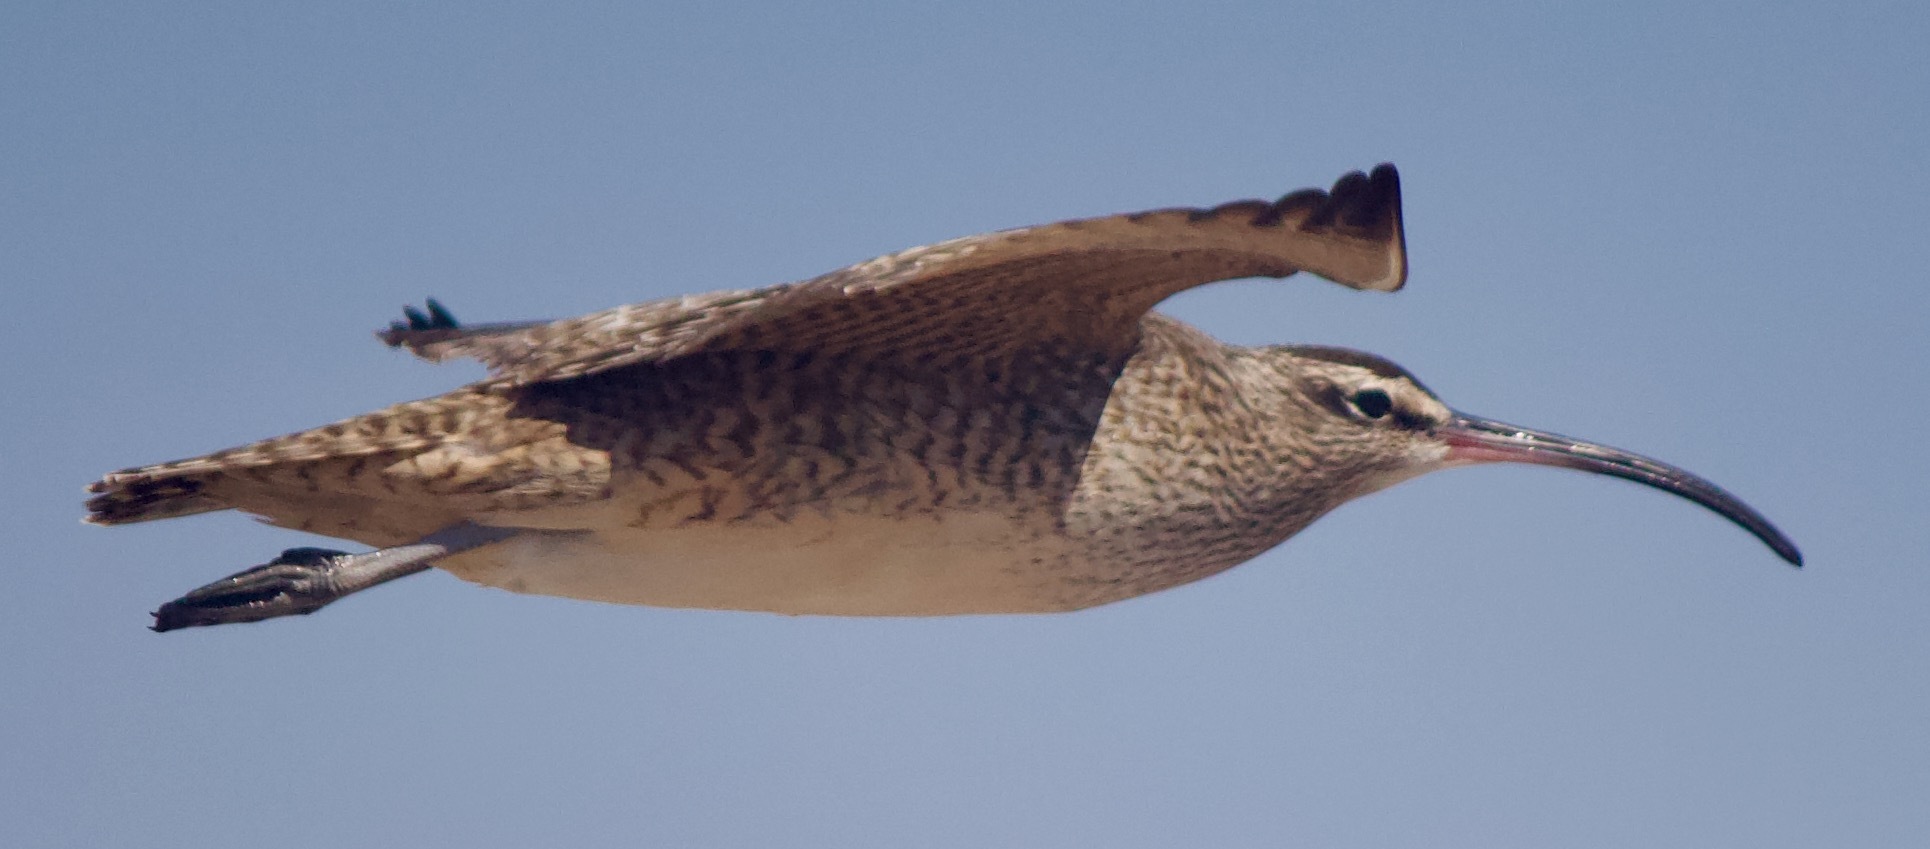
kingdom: Animalia
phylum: Chordata
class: Aves
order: Charadriiformes
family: Scolopacidae
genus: Numenius
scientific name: Numenius phaeopus
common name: Whimbrel
